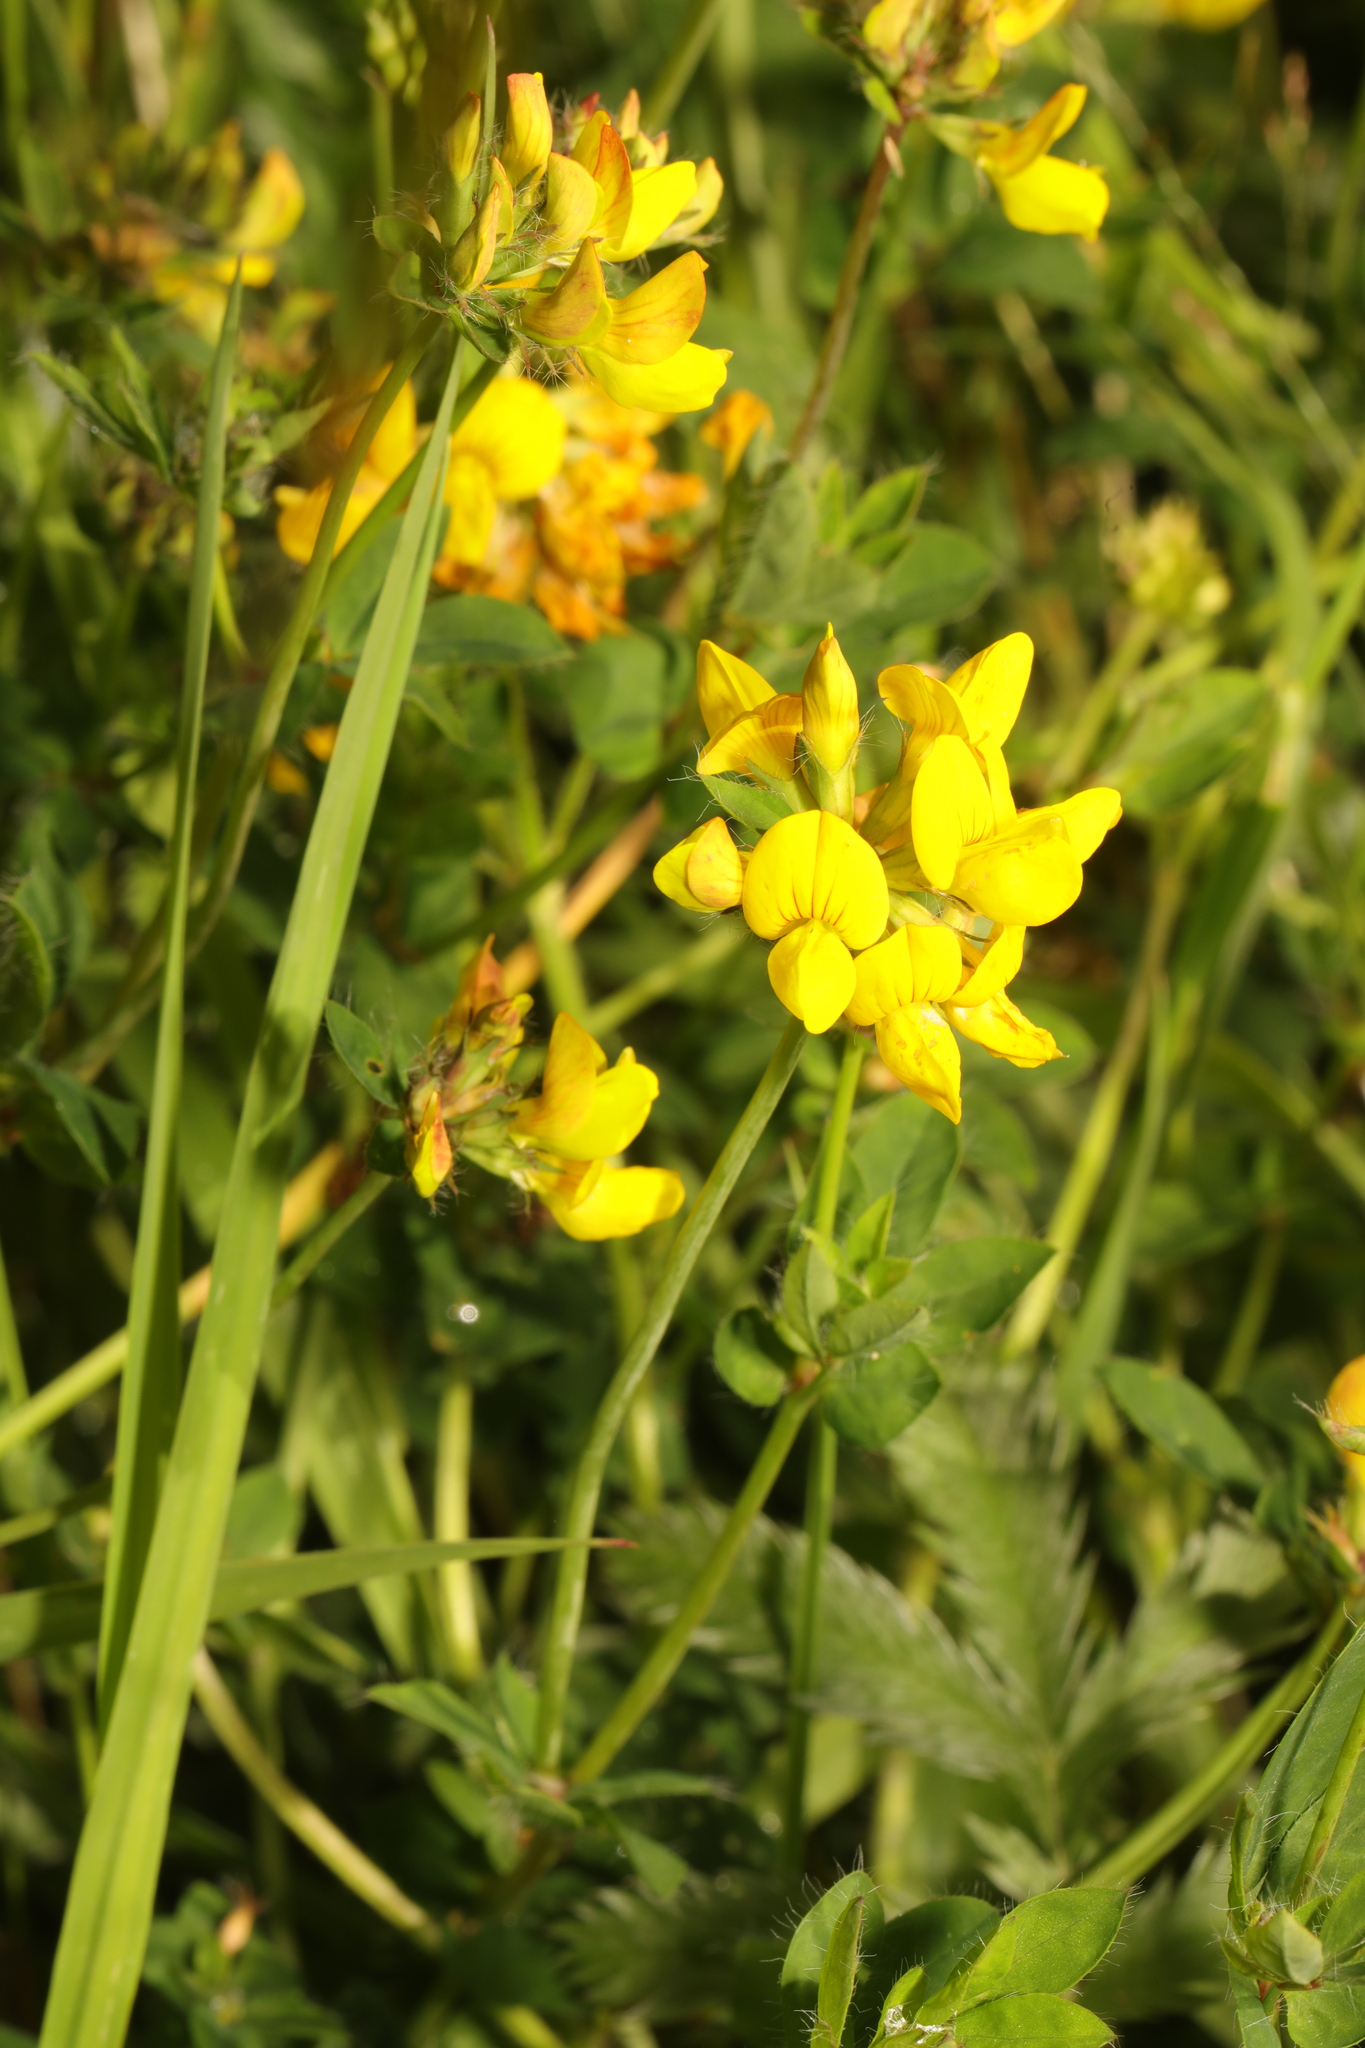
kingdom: Plantae
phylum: Tracheophyta
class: Magnoliopsida
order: Fabales
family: Fabaceae
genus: Lotus
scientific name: Lotus pedunculatus
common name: Greater birdsfoot-trefoil
